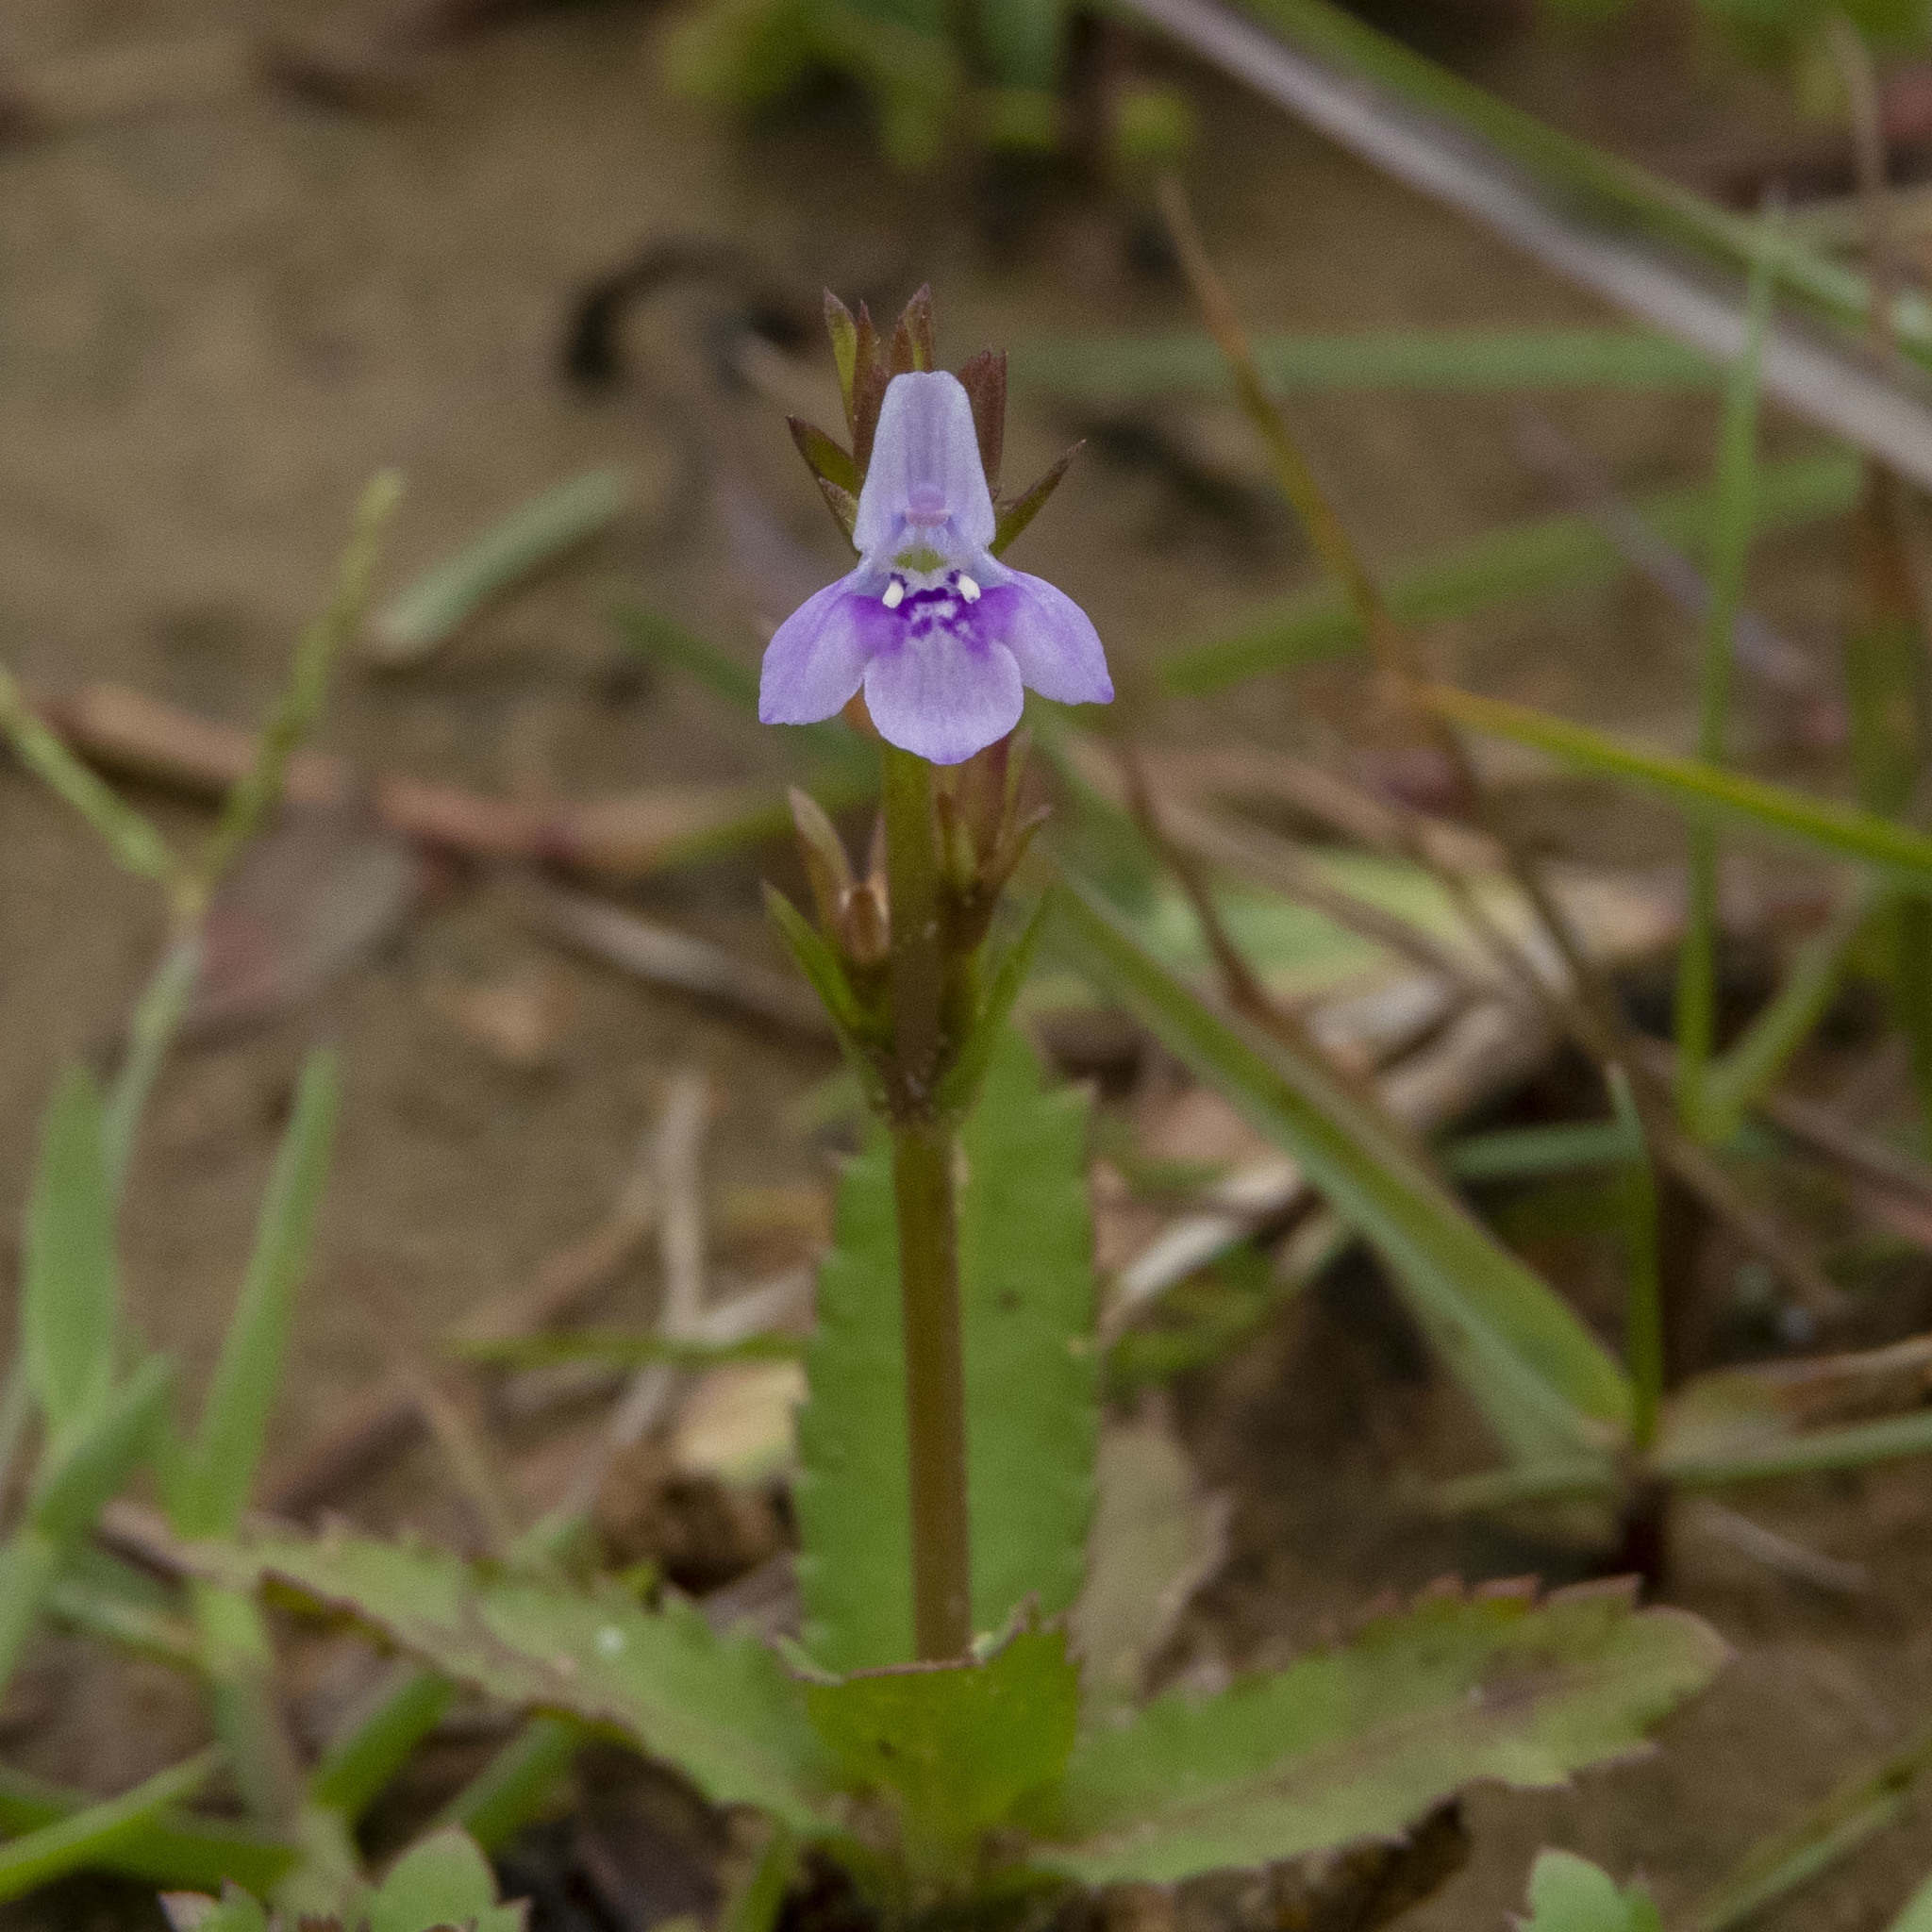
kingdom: Plantae
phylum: Tracheophyta
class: Magnoliopsida
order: Lamiales
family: Linderniaceae
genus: Bonnaya
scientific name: Bonnaya ciliata
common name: Hairy slitwort
